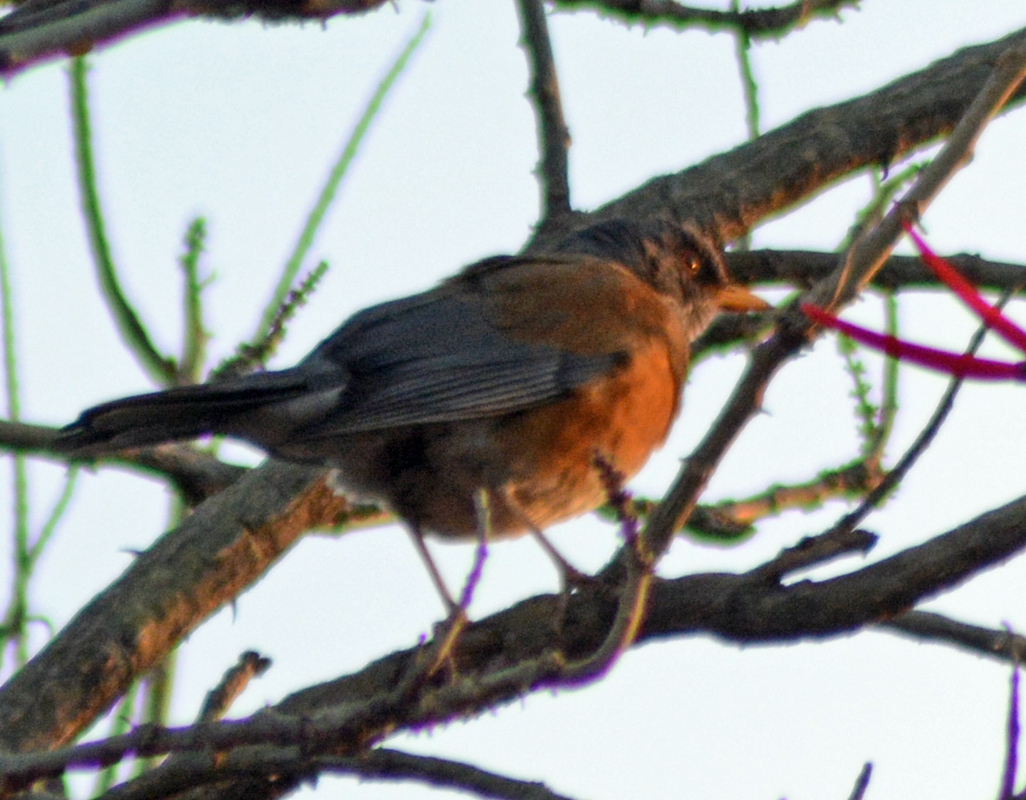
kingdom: Animalia
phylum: Chordata
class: Aves
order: Passeriformes
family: Turdidae
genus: Turdus
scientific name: Turdus rufopalliatus
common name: Rufous-backed robin
